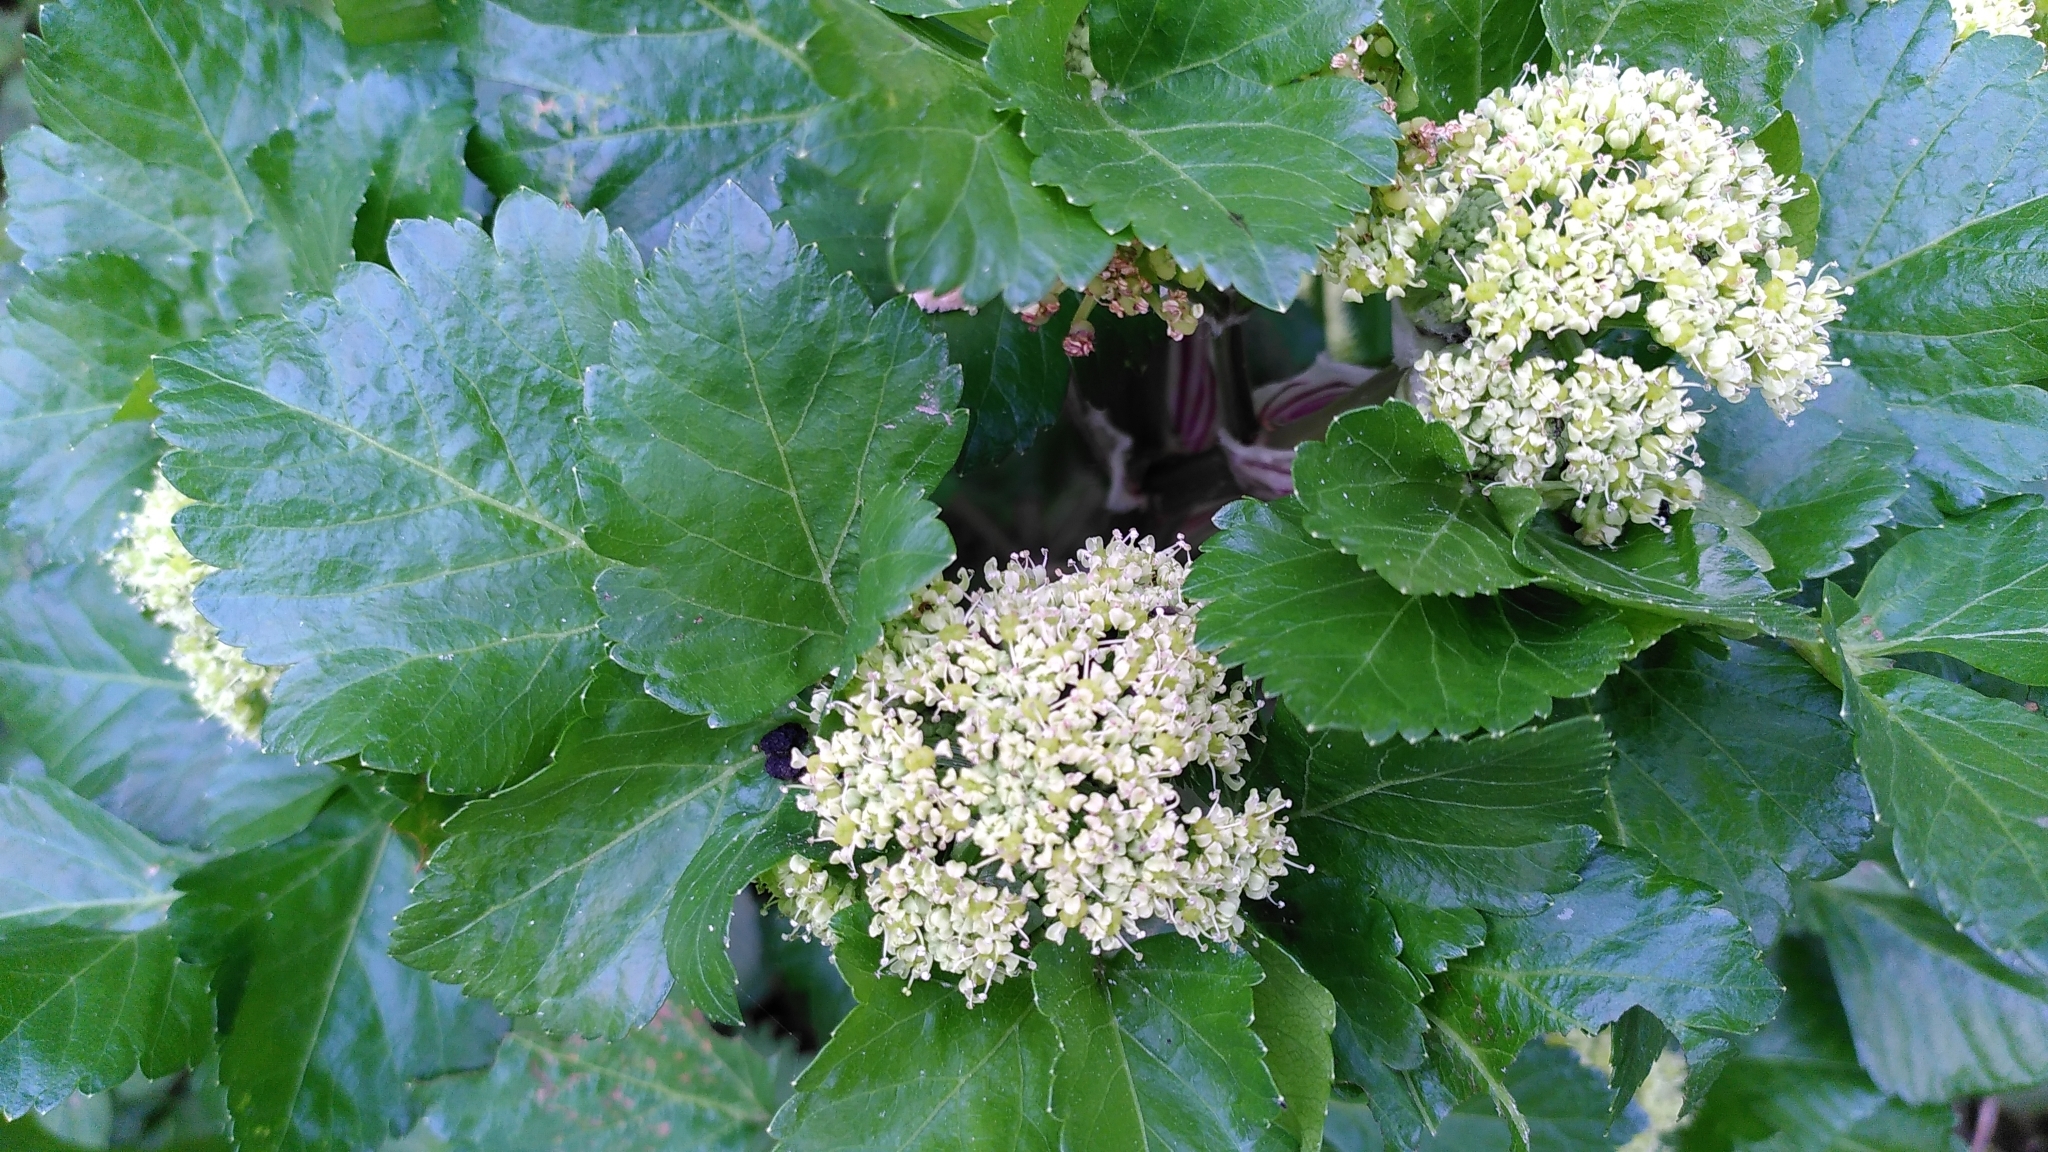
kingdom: Plantae
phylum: Tracheophyta
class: Magnoliopsida
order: Apiales
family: Apiaceae
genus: Smyrnium
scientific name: Smyrnium olusatrum
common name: Alexanders
